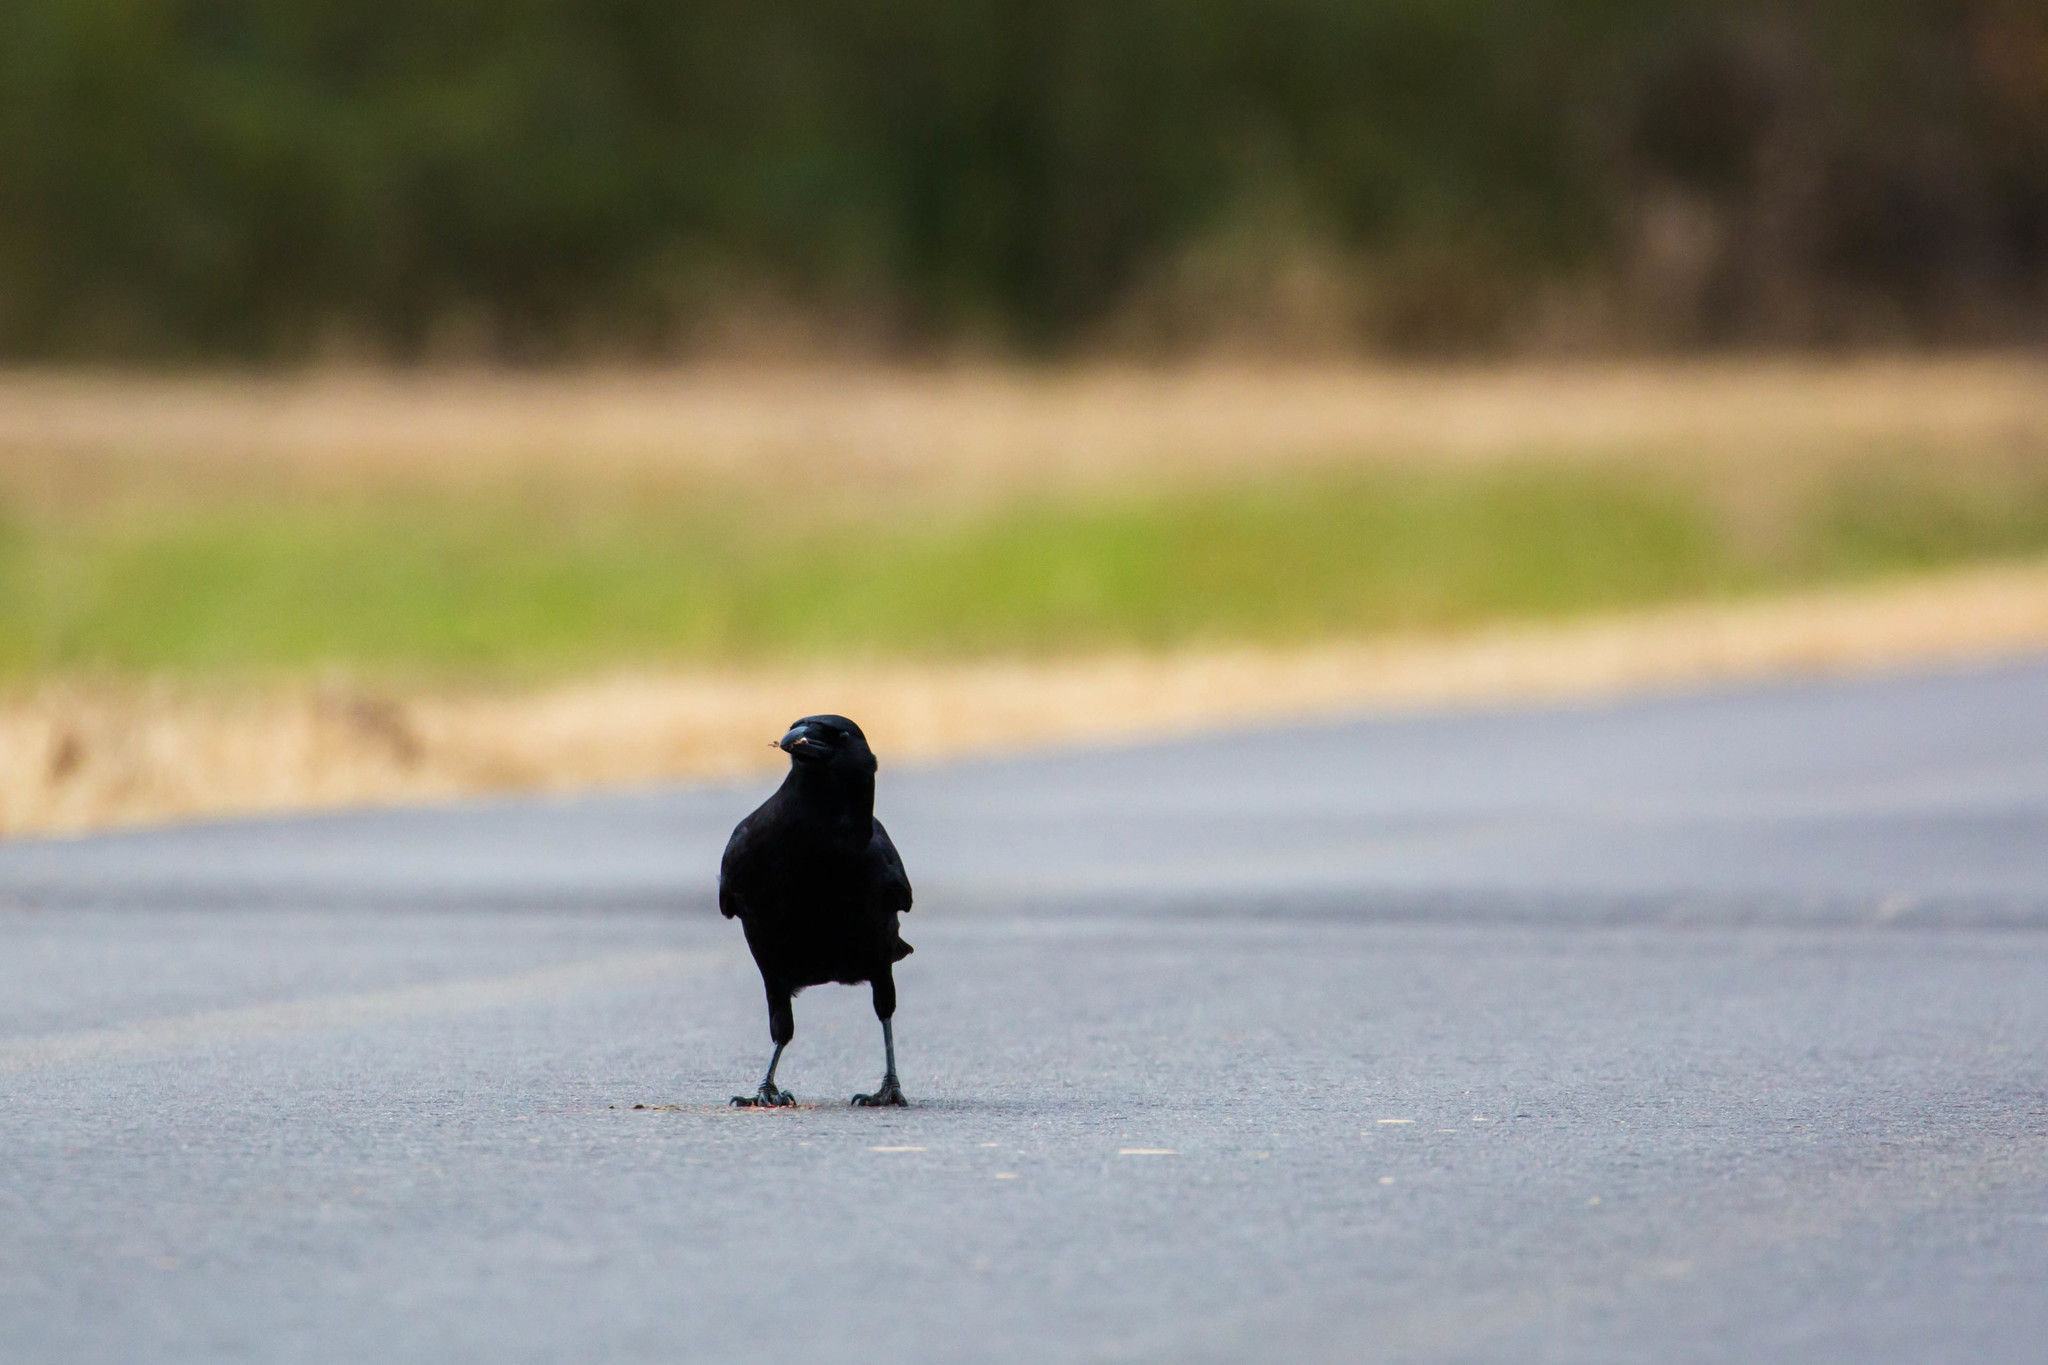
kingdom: Animalia
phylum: Chordata
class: Aves
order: Passeriformes
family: Corvidae
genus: Corvus
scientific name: Corvus brachyrhynchos
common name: American crow
